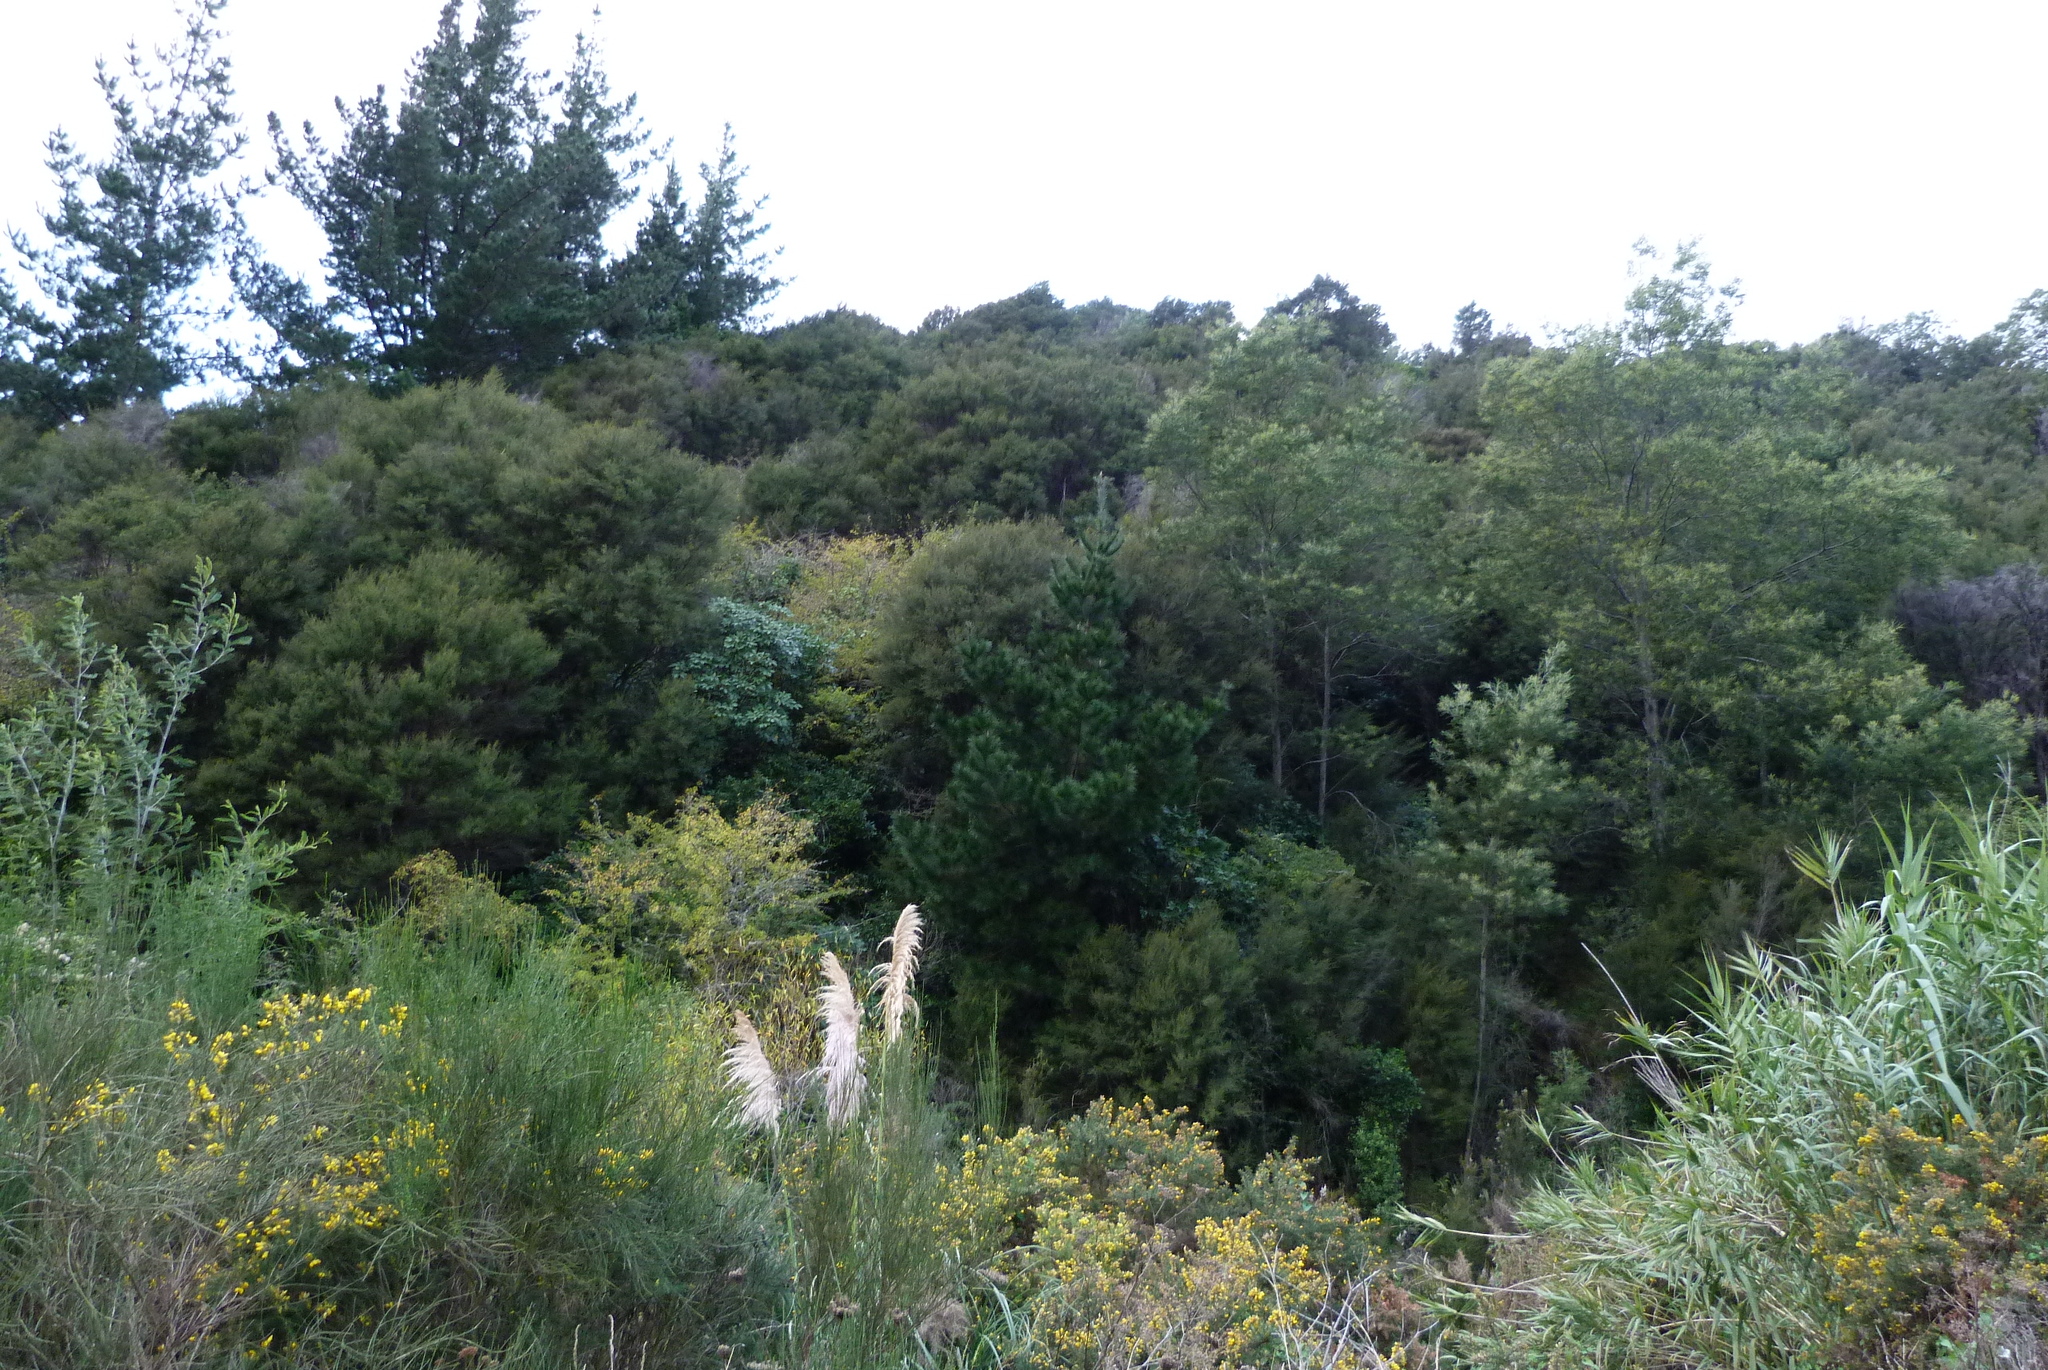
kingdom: Plantae
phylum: Tracheophyta
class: Magnoliopsida
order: Myrtales
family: Myrtaceae
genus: Kunzea
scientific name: Kunzea robusta
